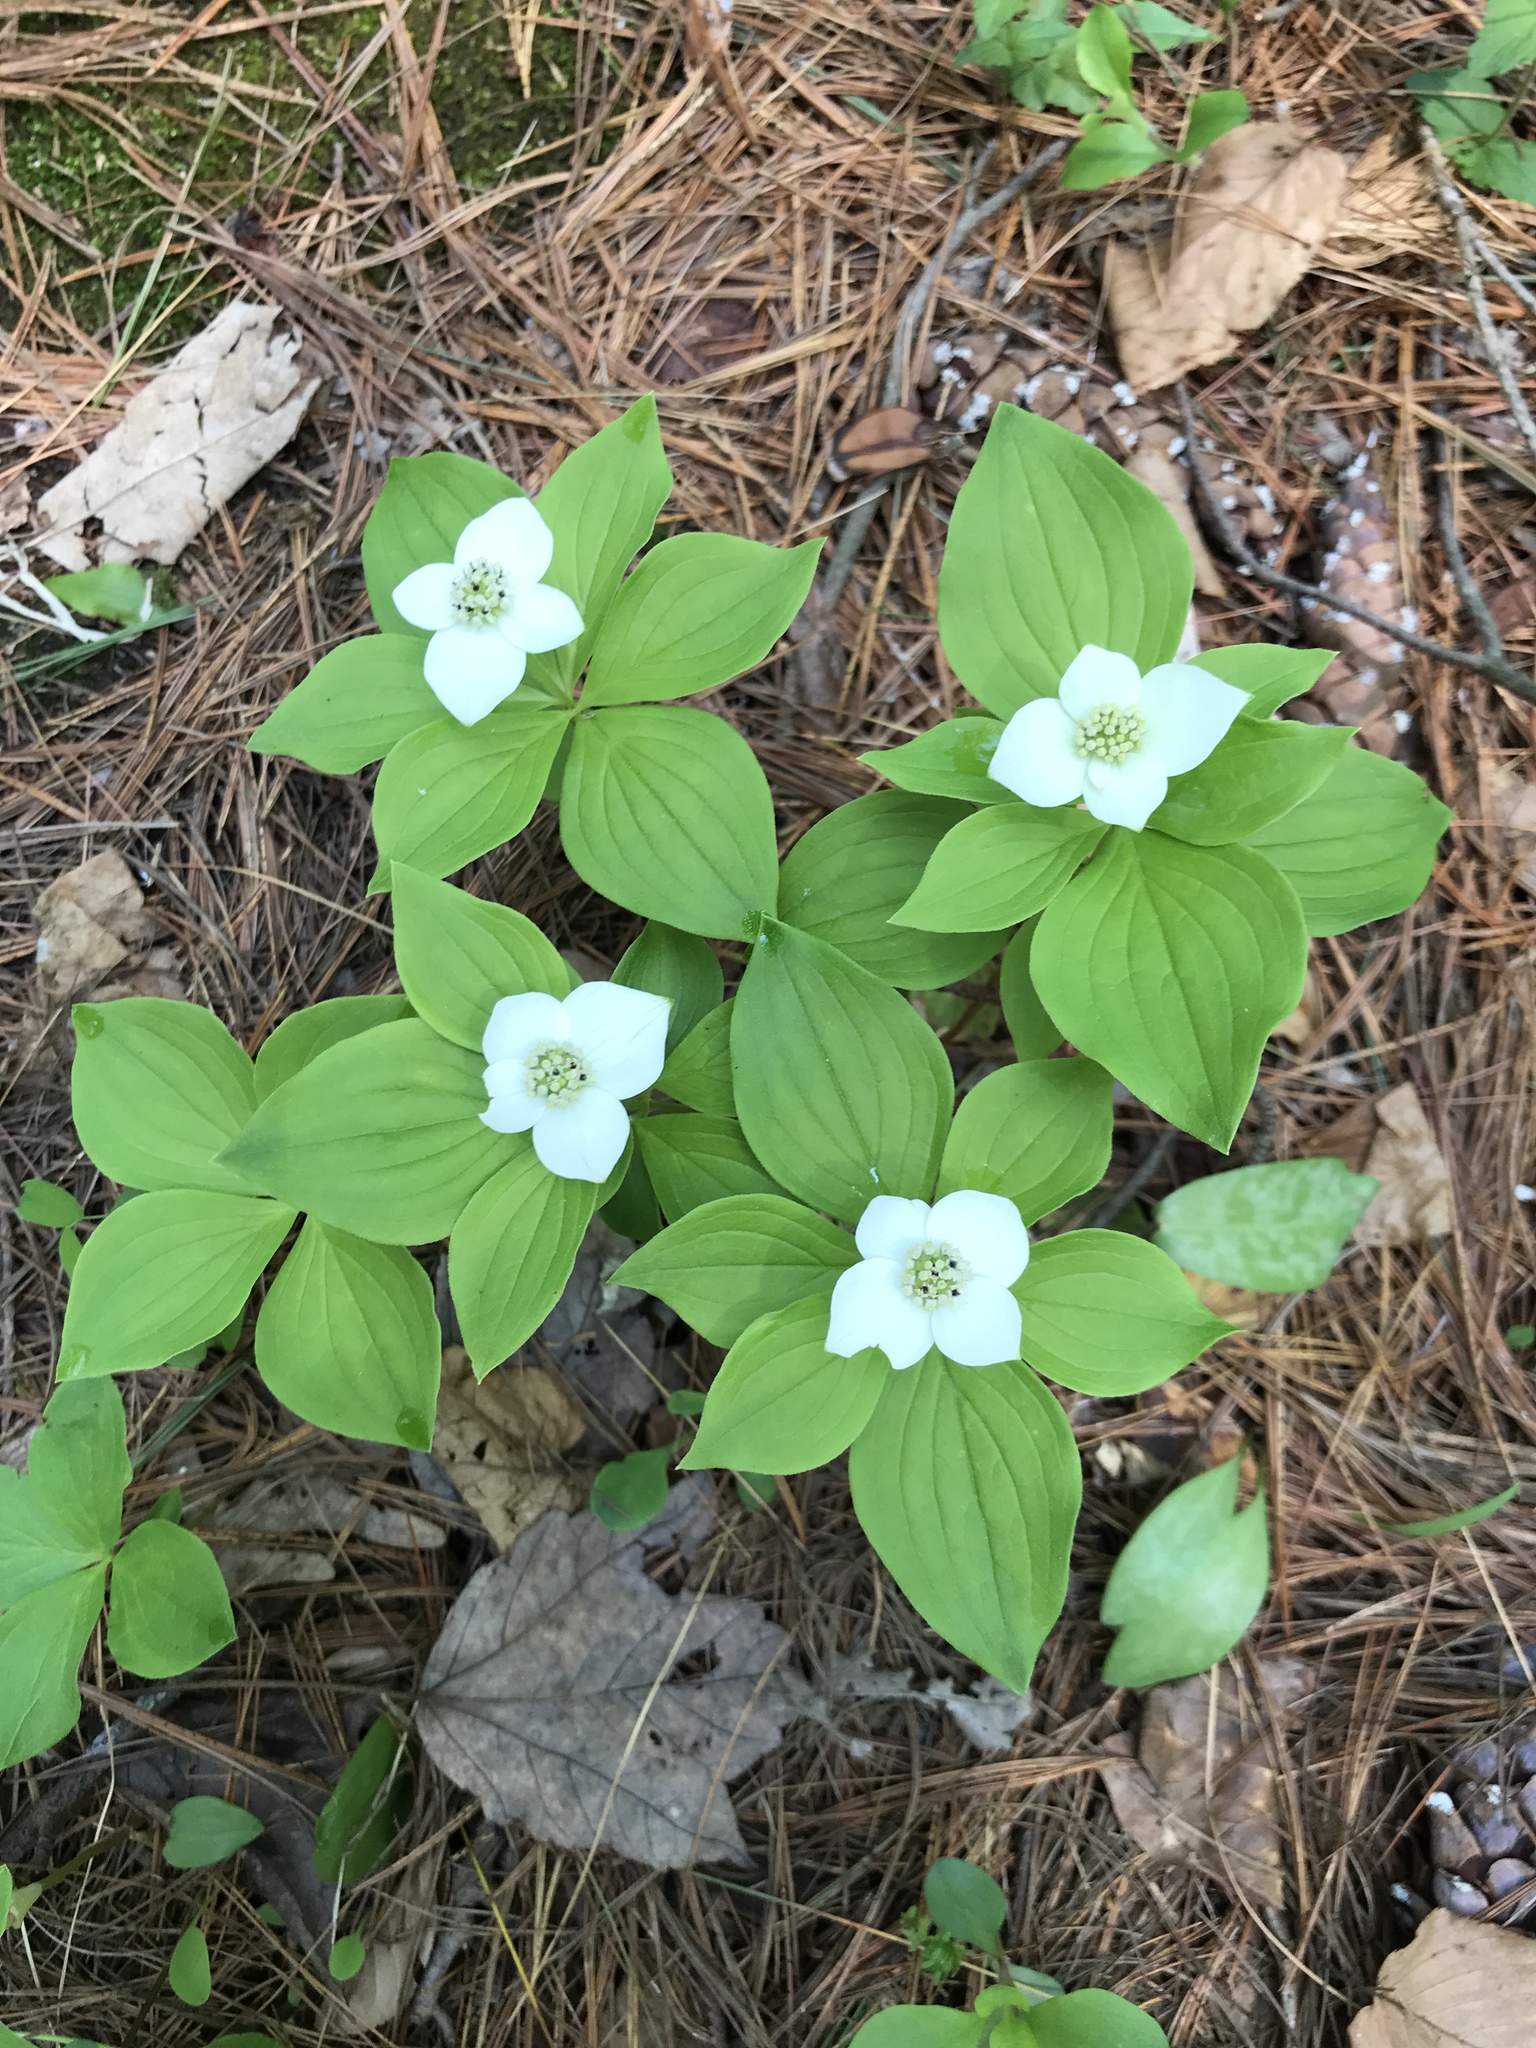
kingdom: Plantae
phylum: Tracheophyta
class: Magnoliopsida
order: Cornales
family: Cornaceae
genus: Cornus
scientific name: Cornus canadensis
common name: Creeping dogwood
